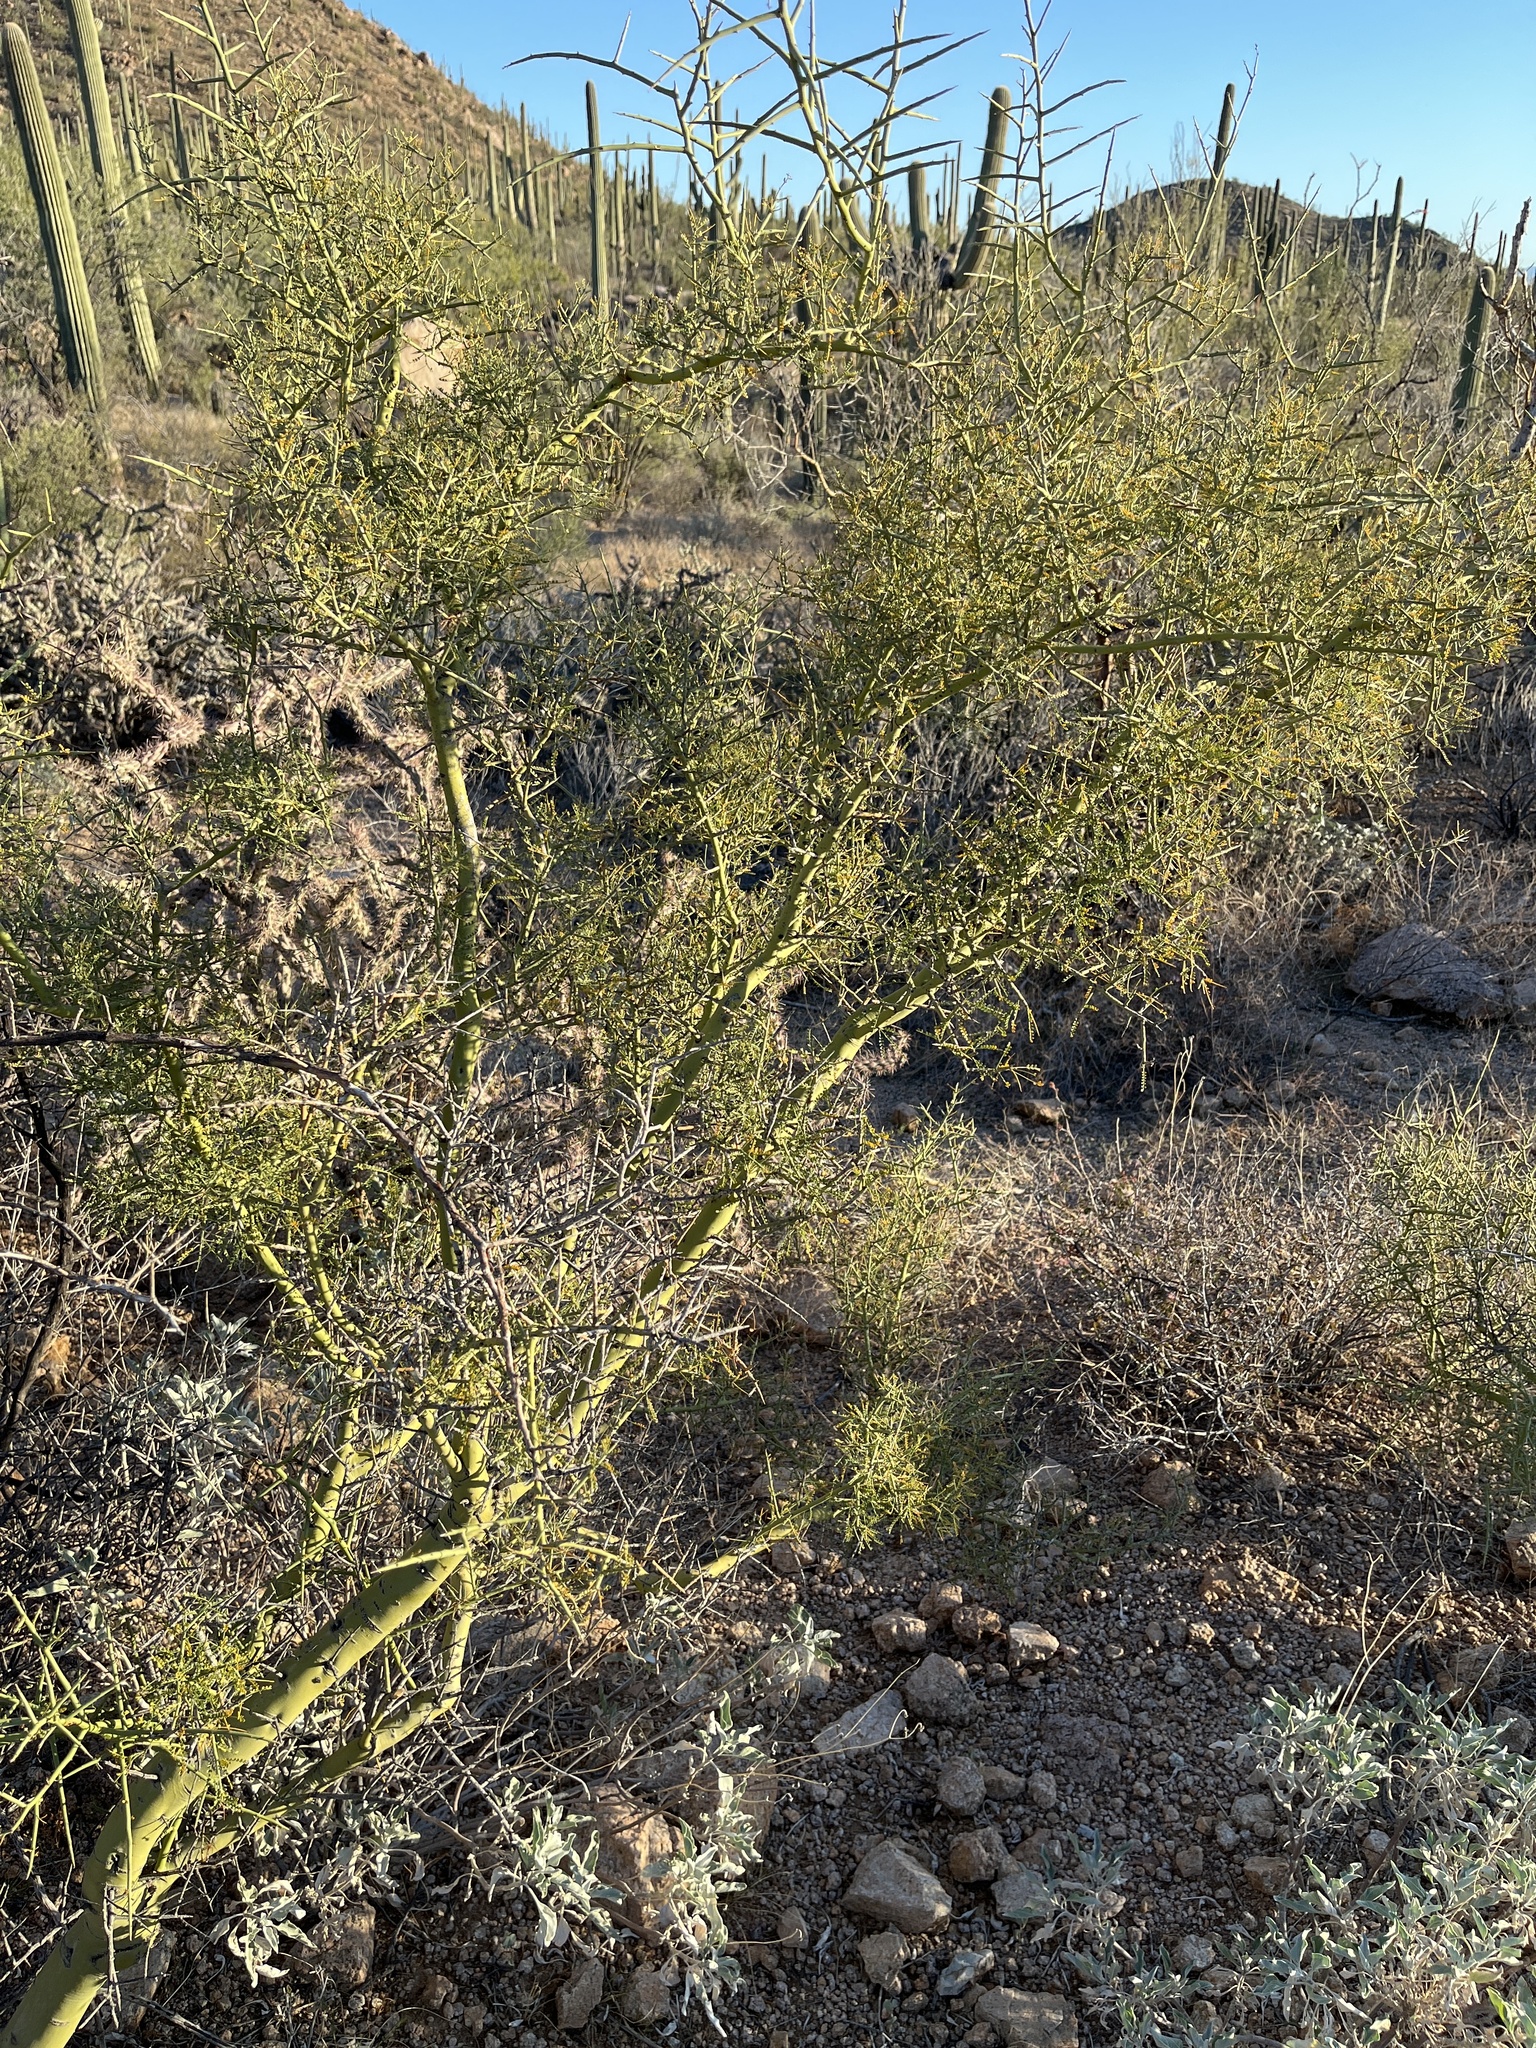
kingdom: Plantae
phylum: Tracheophyta
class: Magnoliopsida
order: Fabales
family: Fabaceae
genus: Parkinsonia
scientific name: Parkinsonia microphylla
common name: Yellow paloverde
